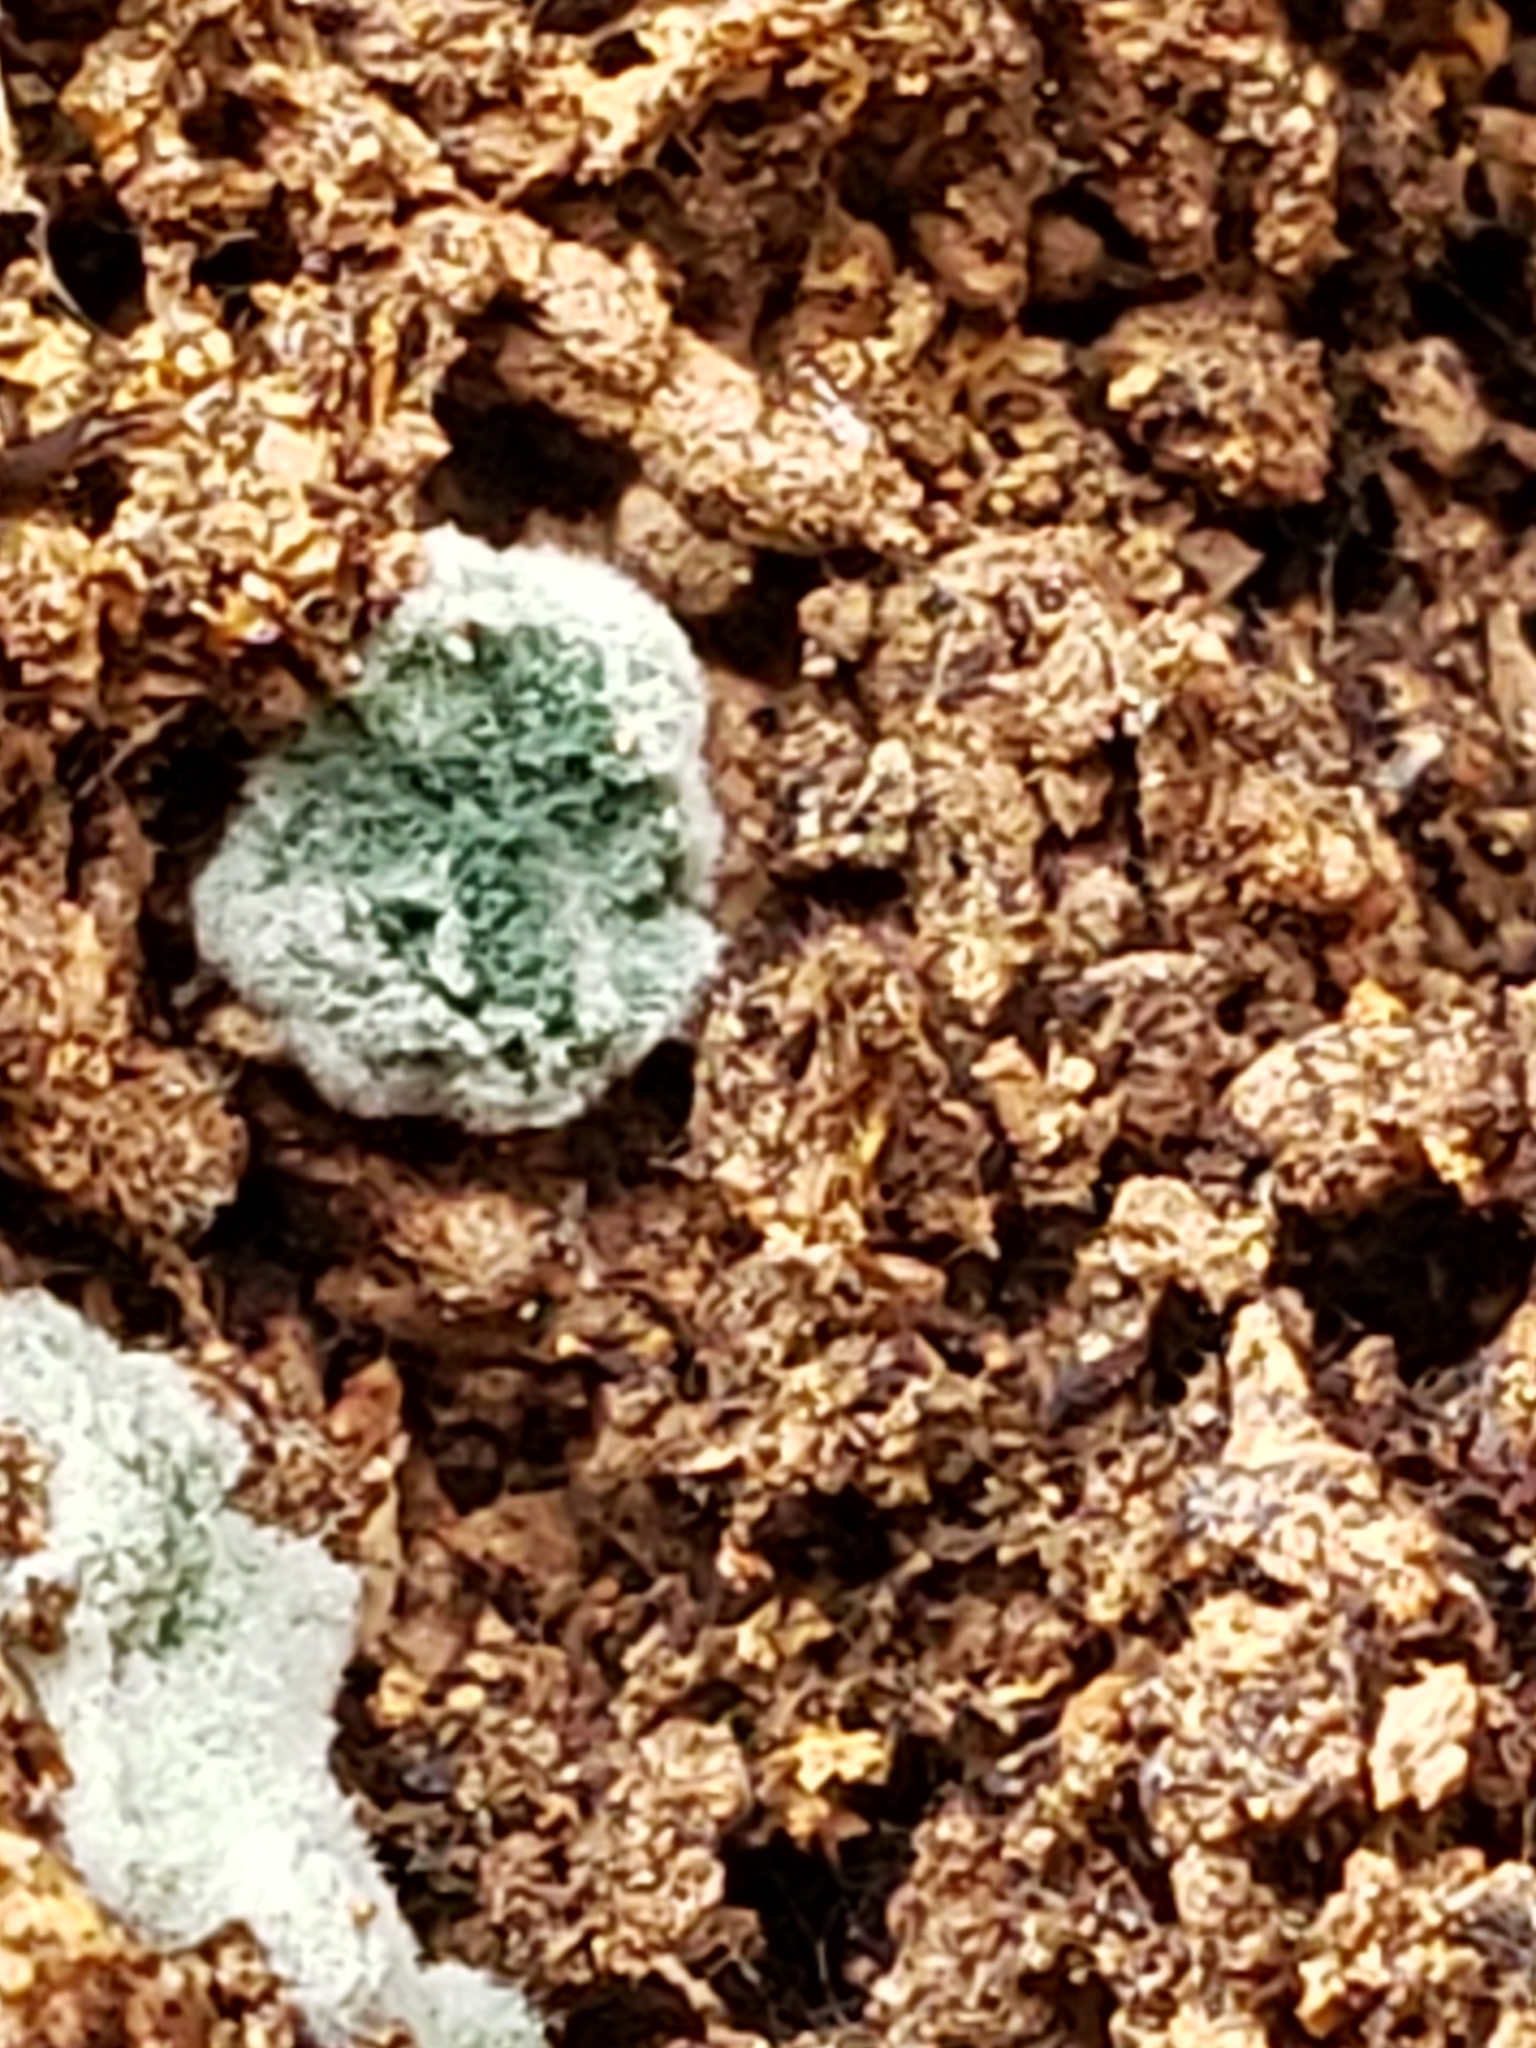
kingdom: Fungi
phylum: Ascomycota
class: Sordariomycetes
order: Hypocreales
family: Hypocreaceae
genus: Trichoderma
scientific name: Trichoderma viride
